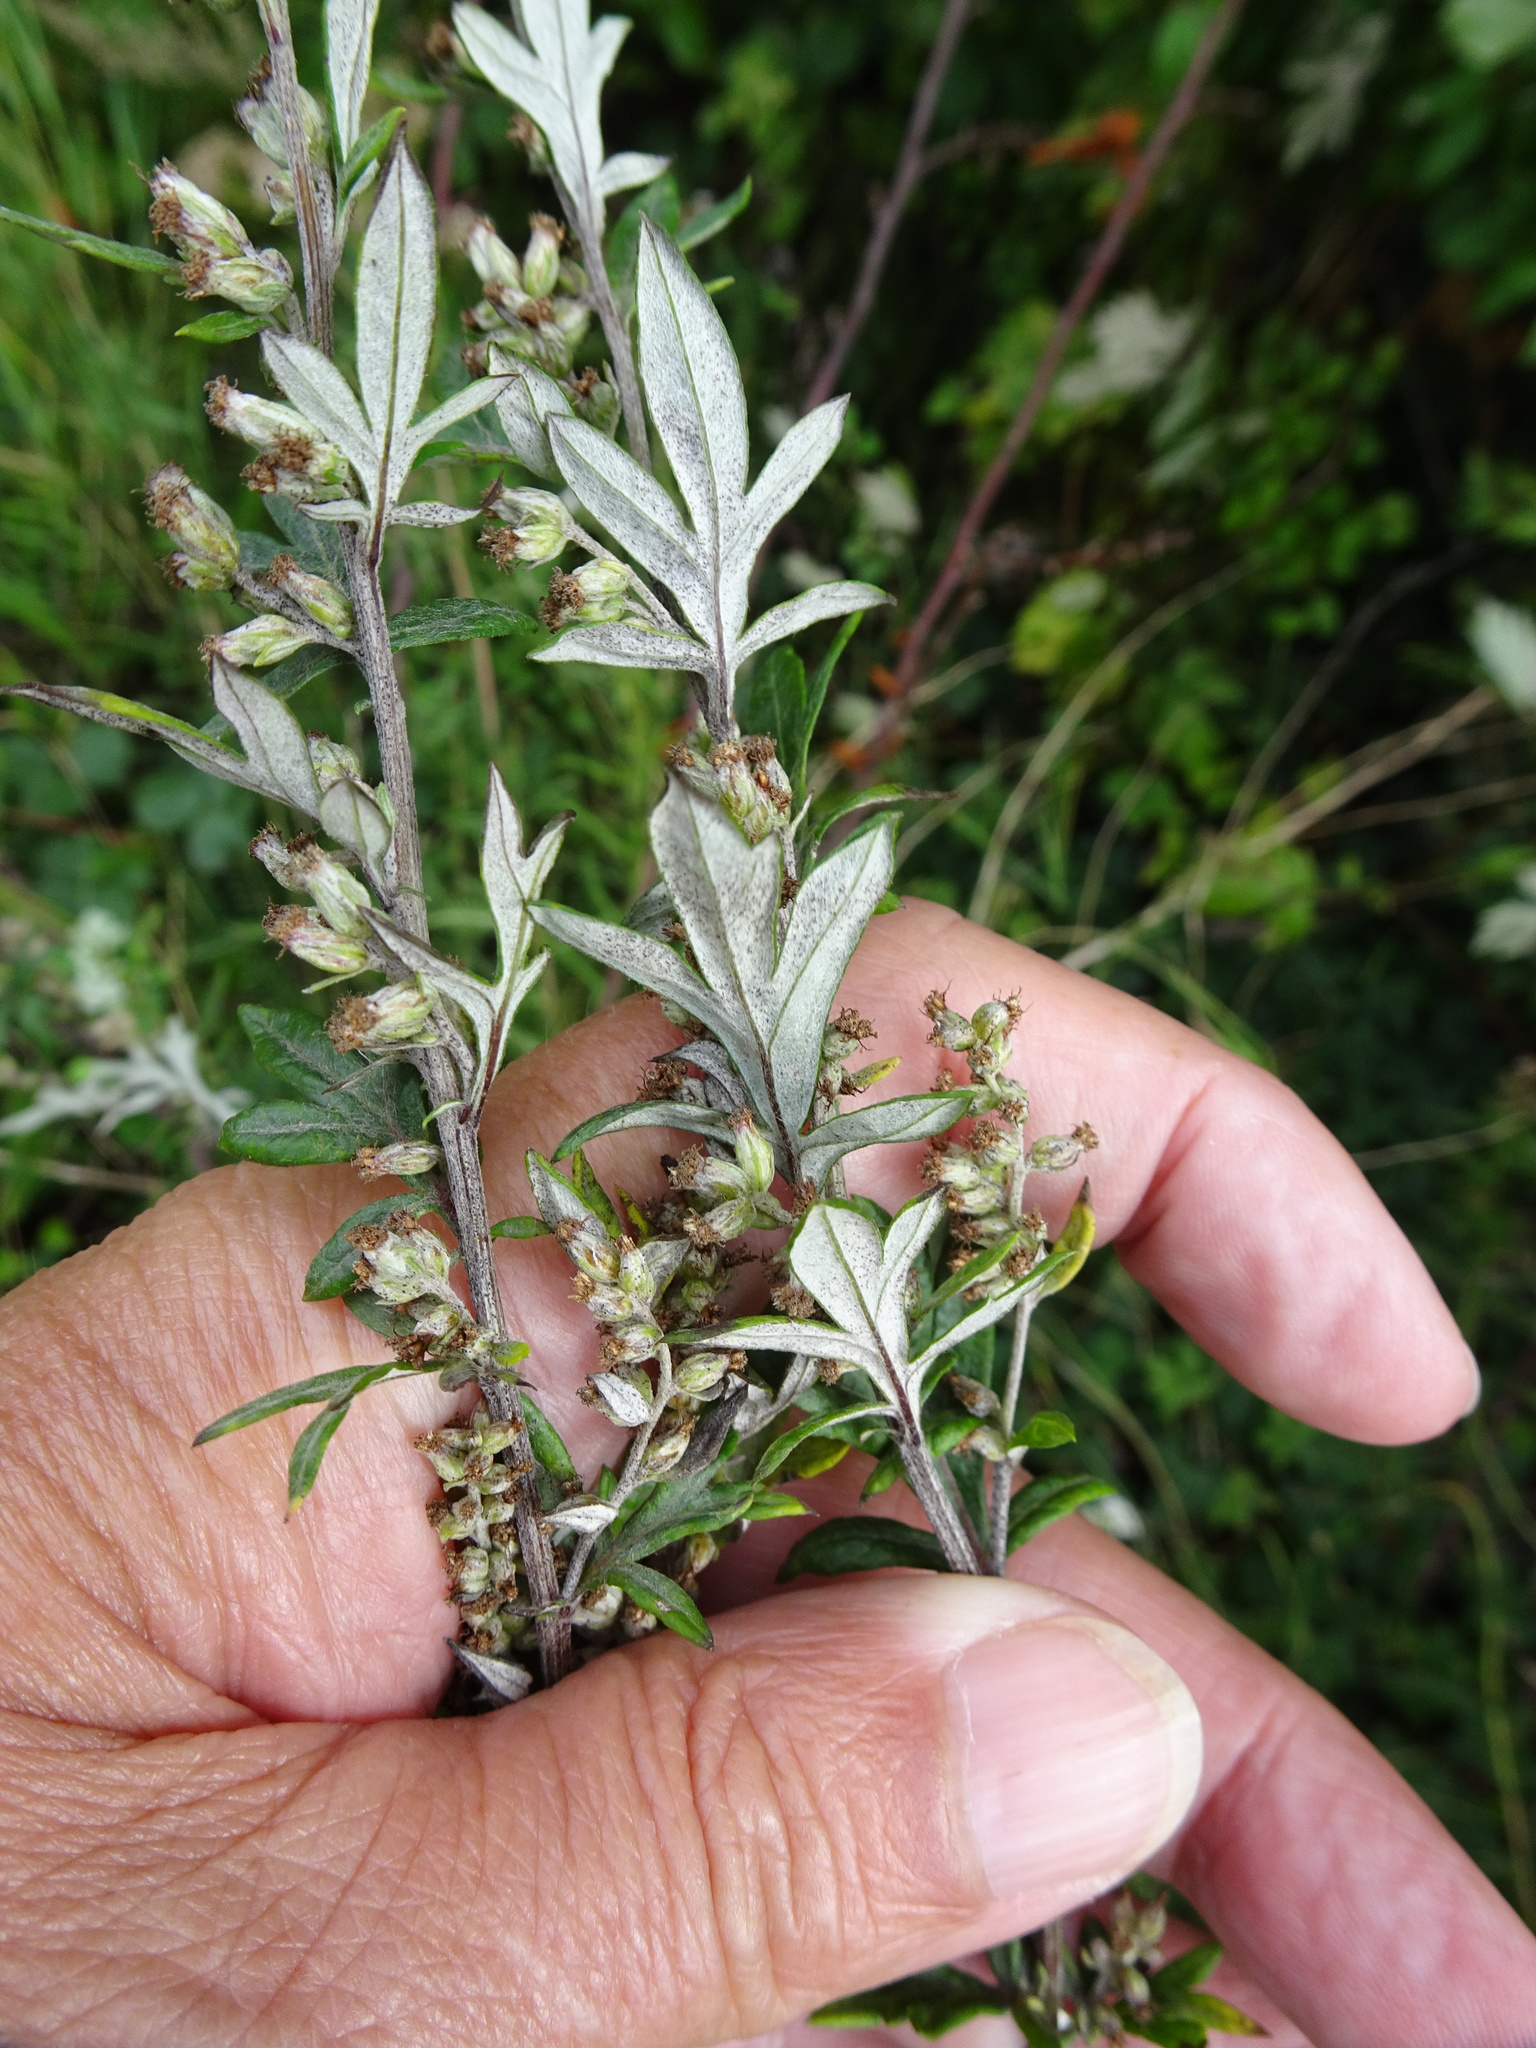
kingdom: Plantae
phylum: Tracheophyta
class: Magnoliopsida
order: Asterales
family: Asteraceae
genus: Artemisia
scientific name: Artemisia vulgaris
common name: Mugwort
